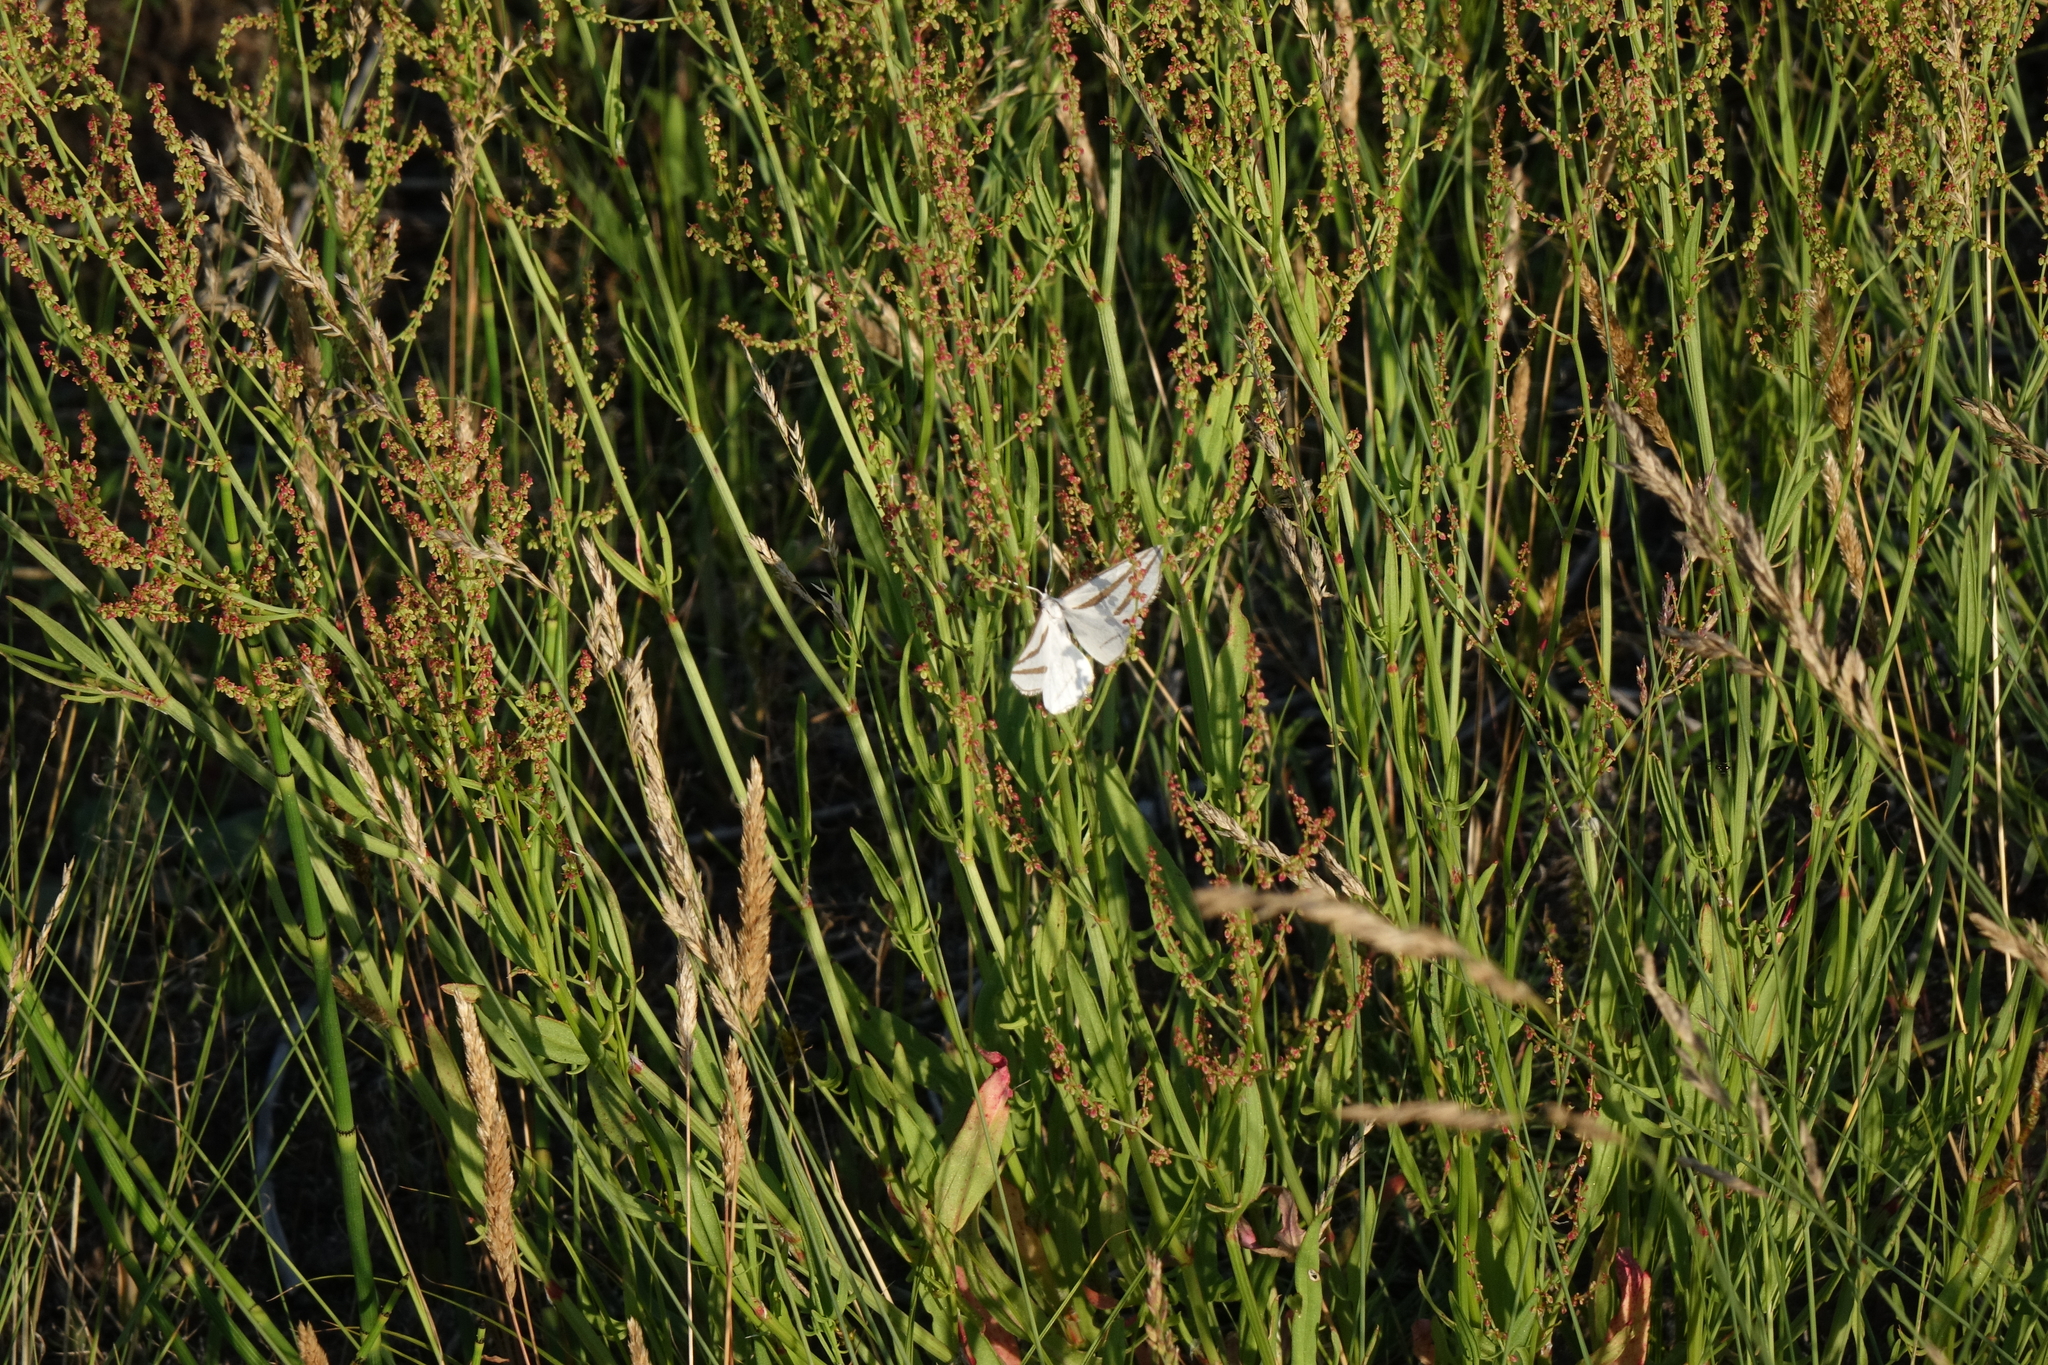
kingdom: Plantae
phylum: Tracheophyta
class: Magnoliopsida
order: Caryophyllales
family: Polygonaceae
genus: Rumex
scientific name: Rumex acetosella
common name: Common sheep sorrel
